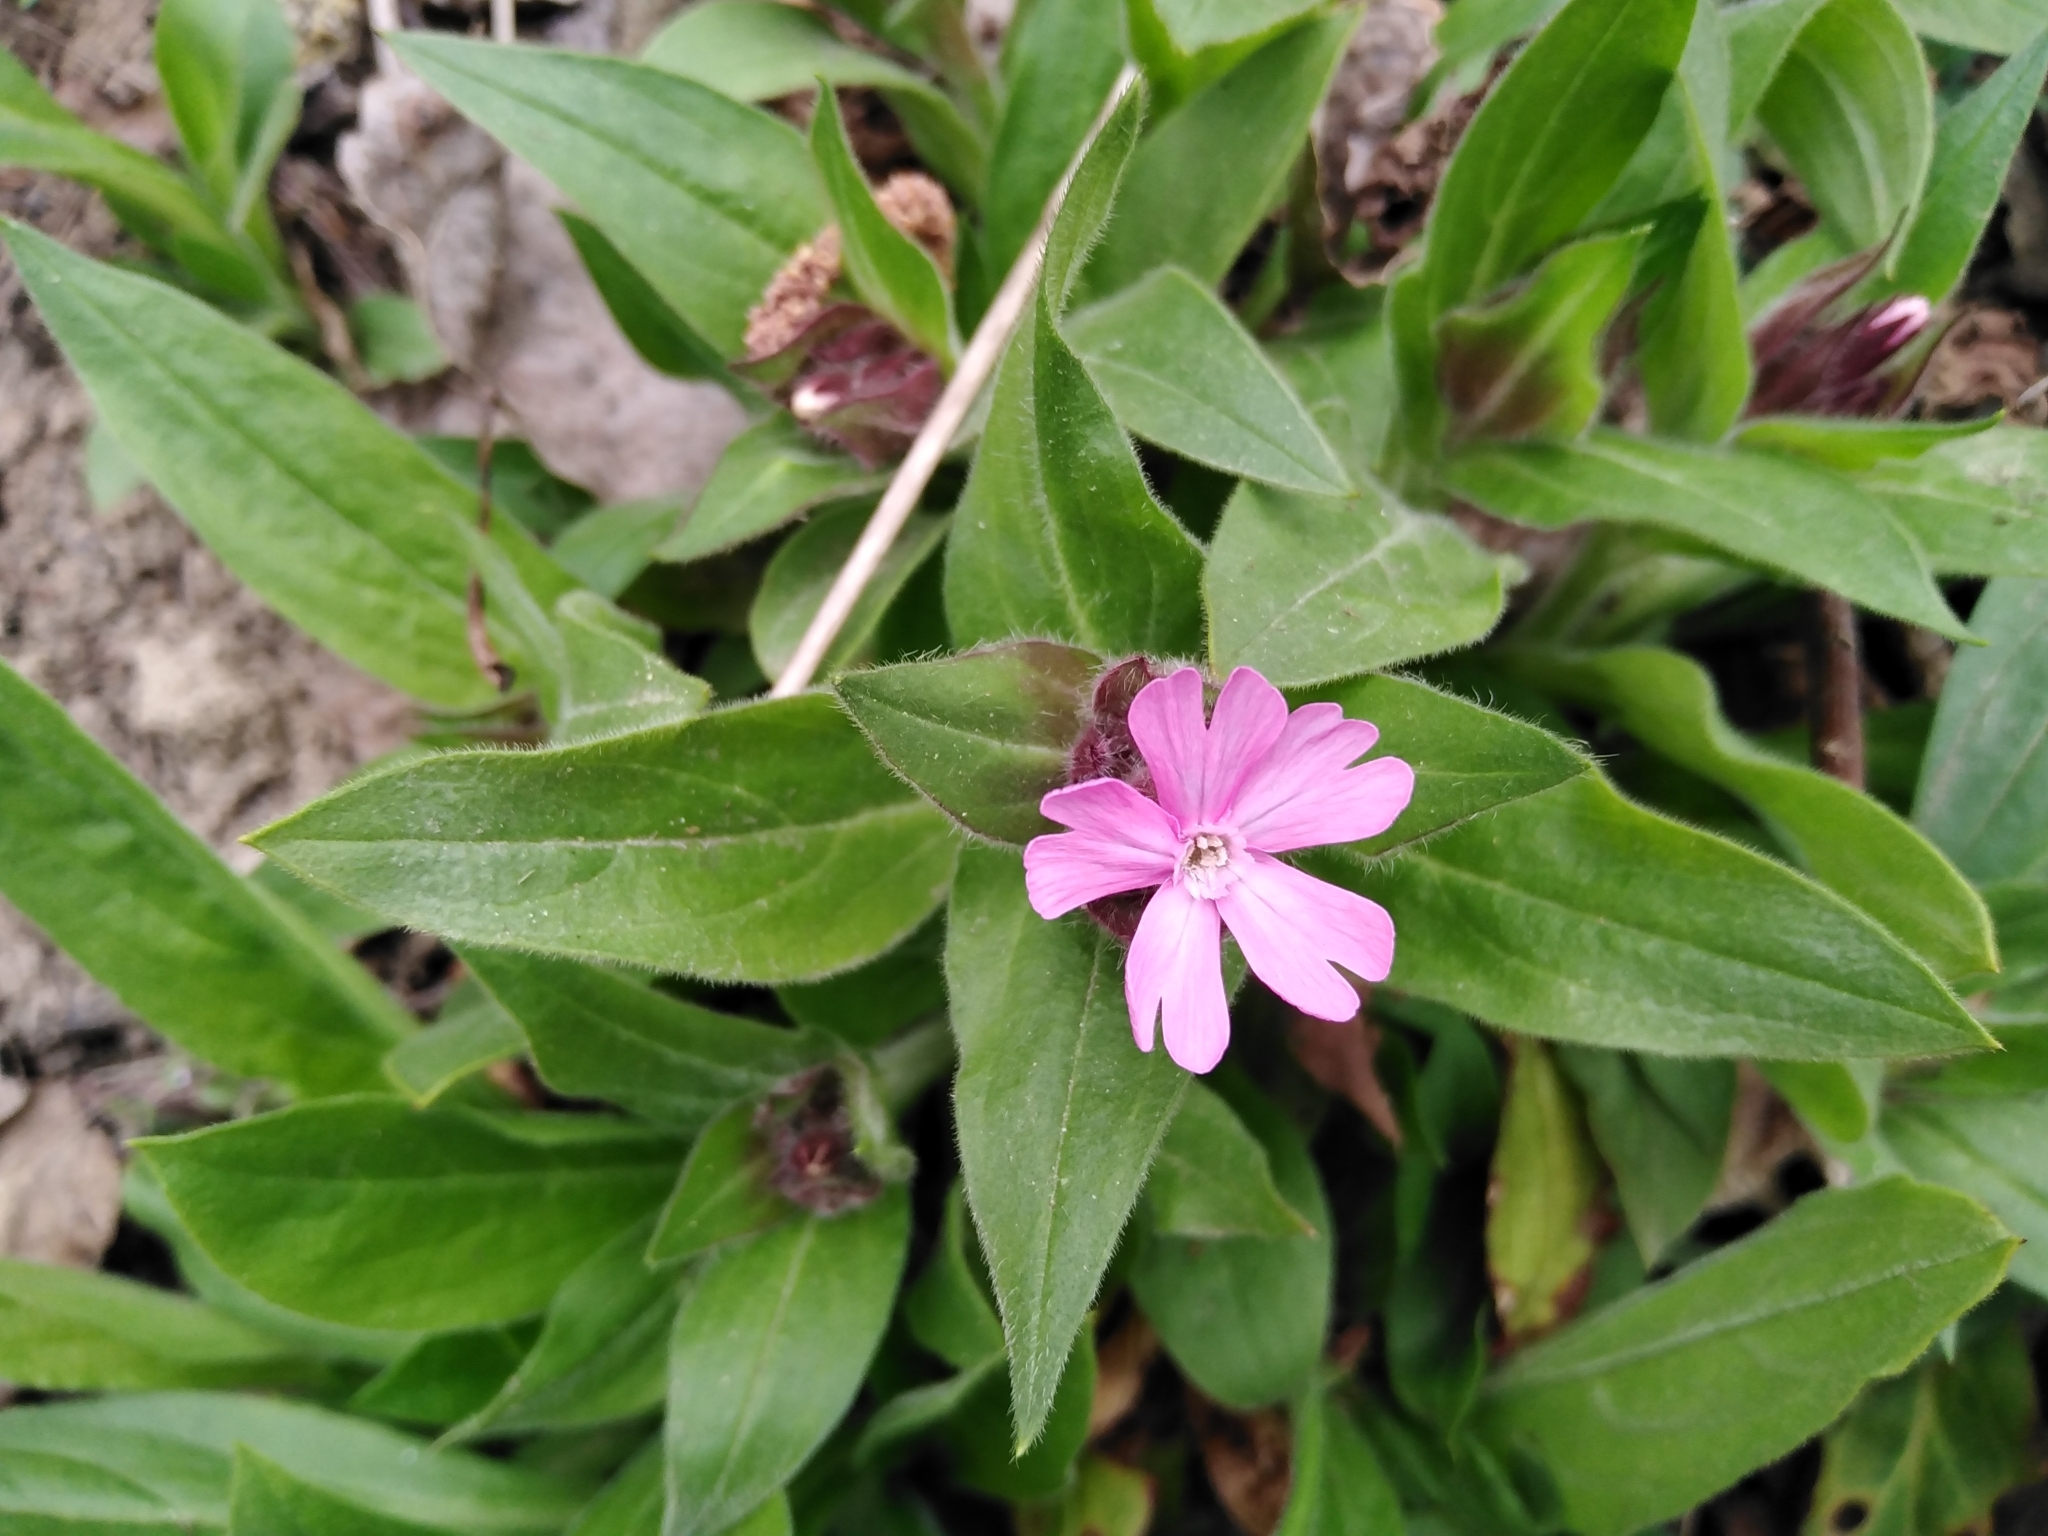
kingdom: Plantae
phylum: Tracheophyta
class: Magnoliopsida
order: Caryophyllales
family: Caryophyllaceae
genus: Silene
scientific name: Silene dioica
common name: Red campion
